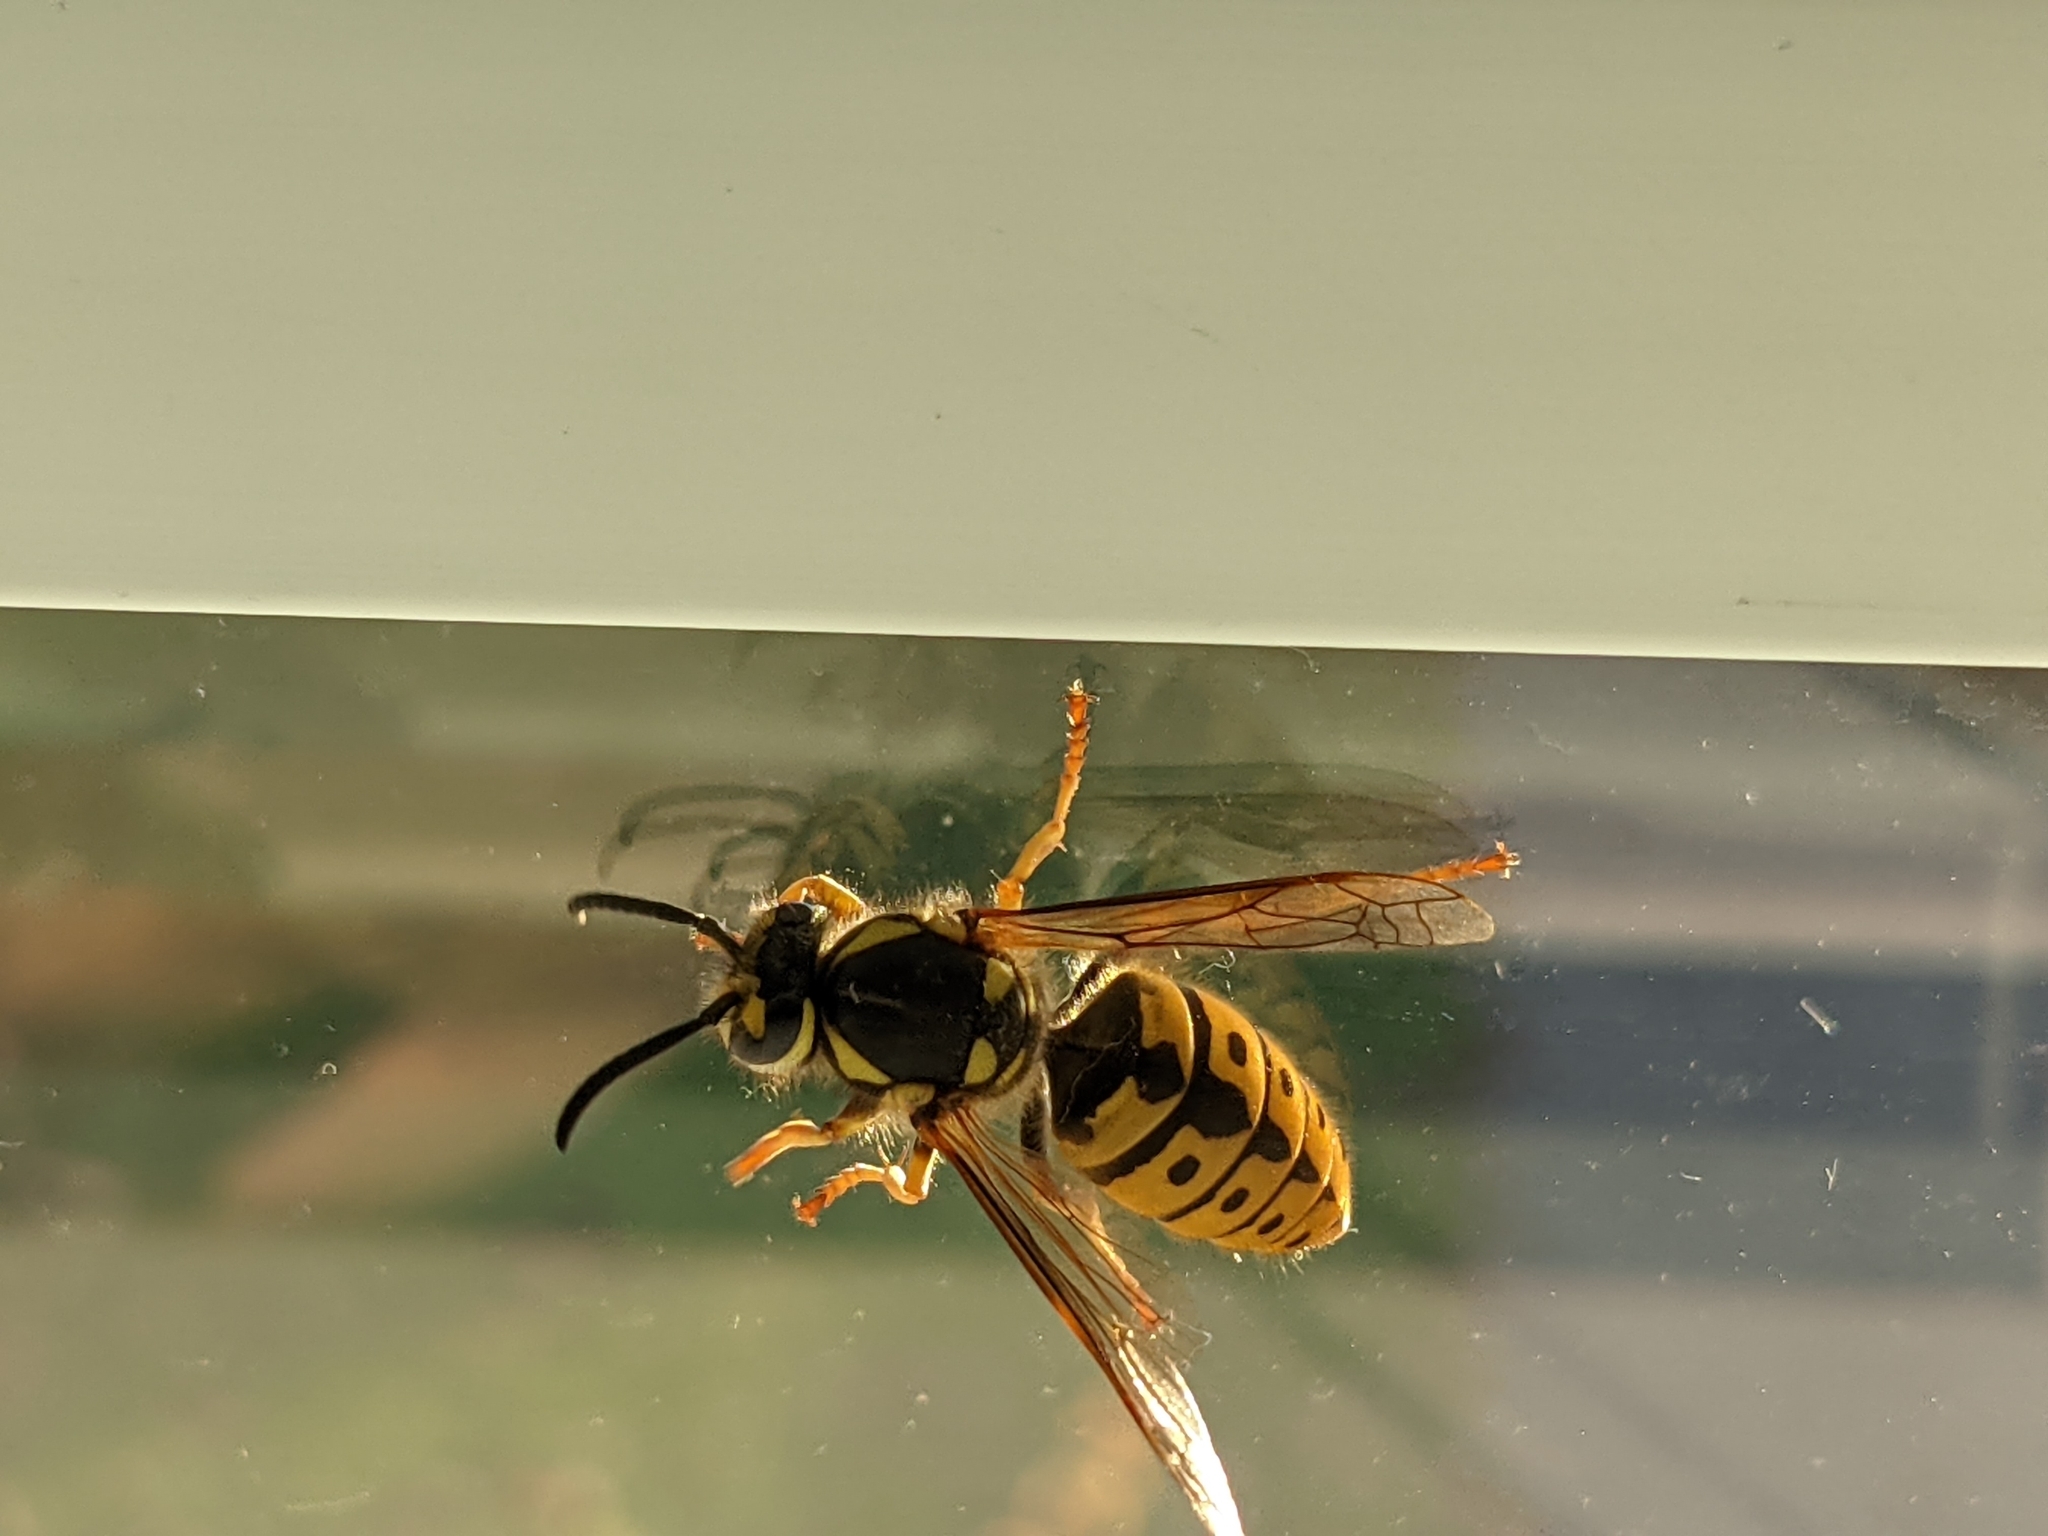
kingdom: Animalia
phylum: Arthropoda
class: Insecta
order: Hymenoptera
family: Vespidae
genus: Vespula
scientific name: Vespula germanica
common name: German wasp
